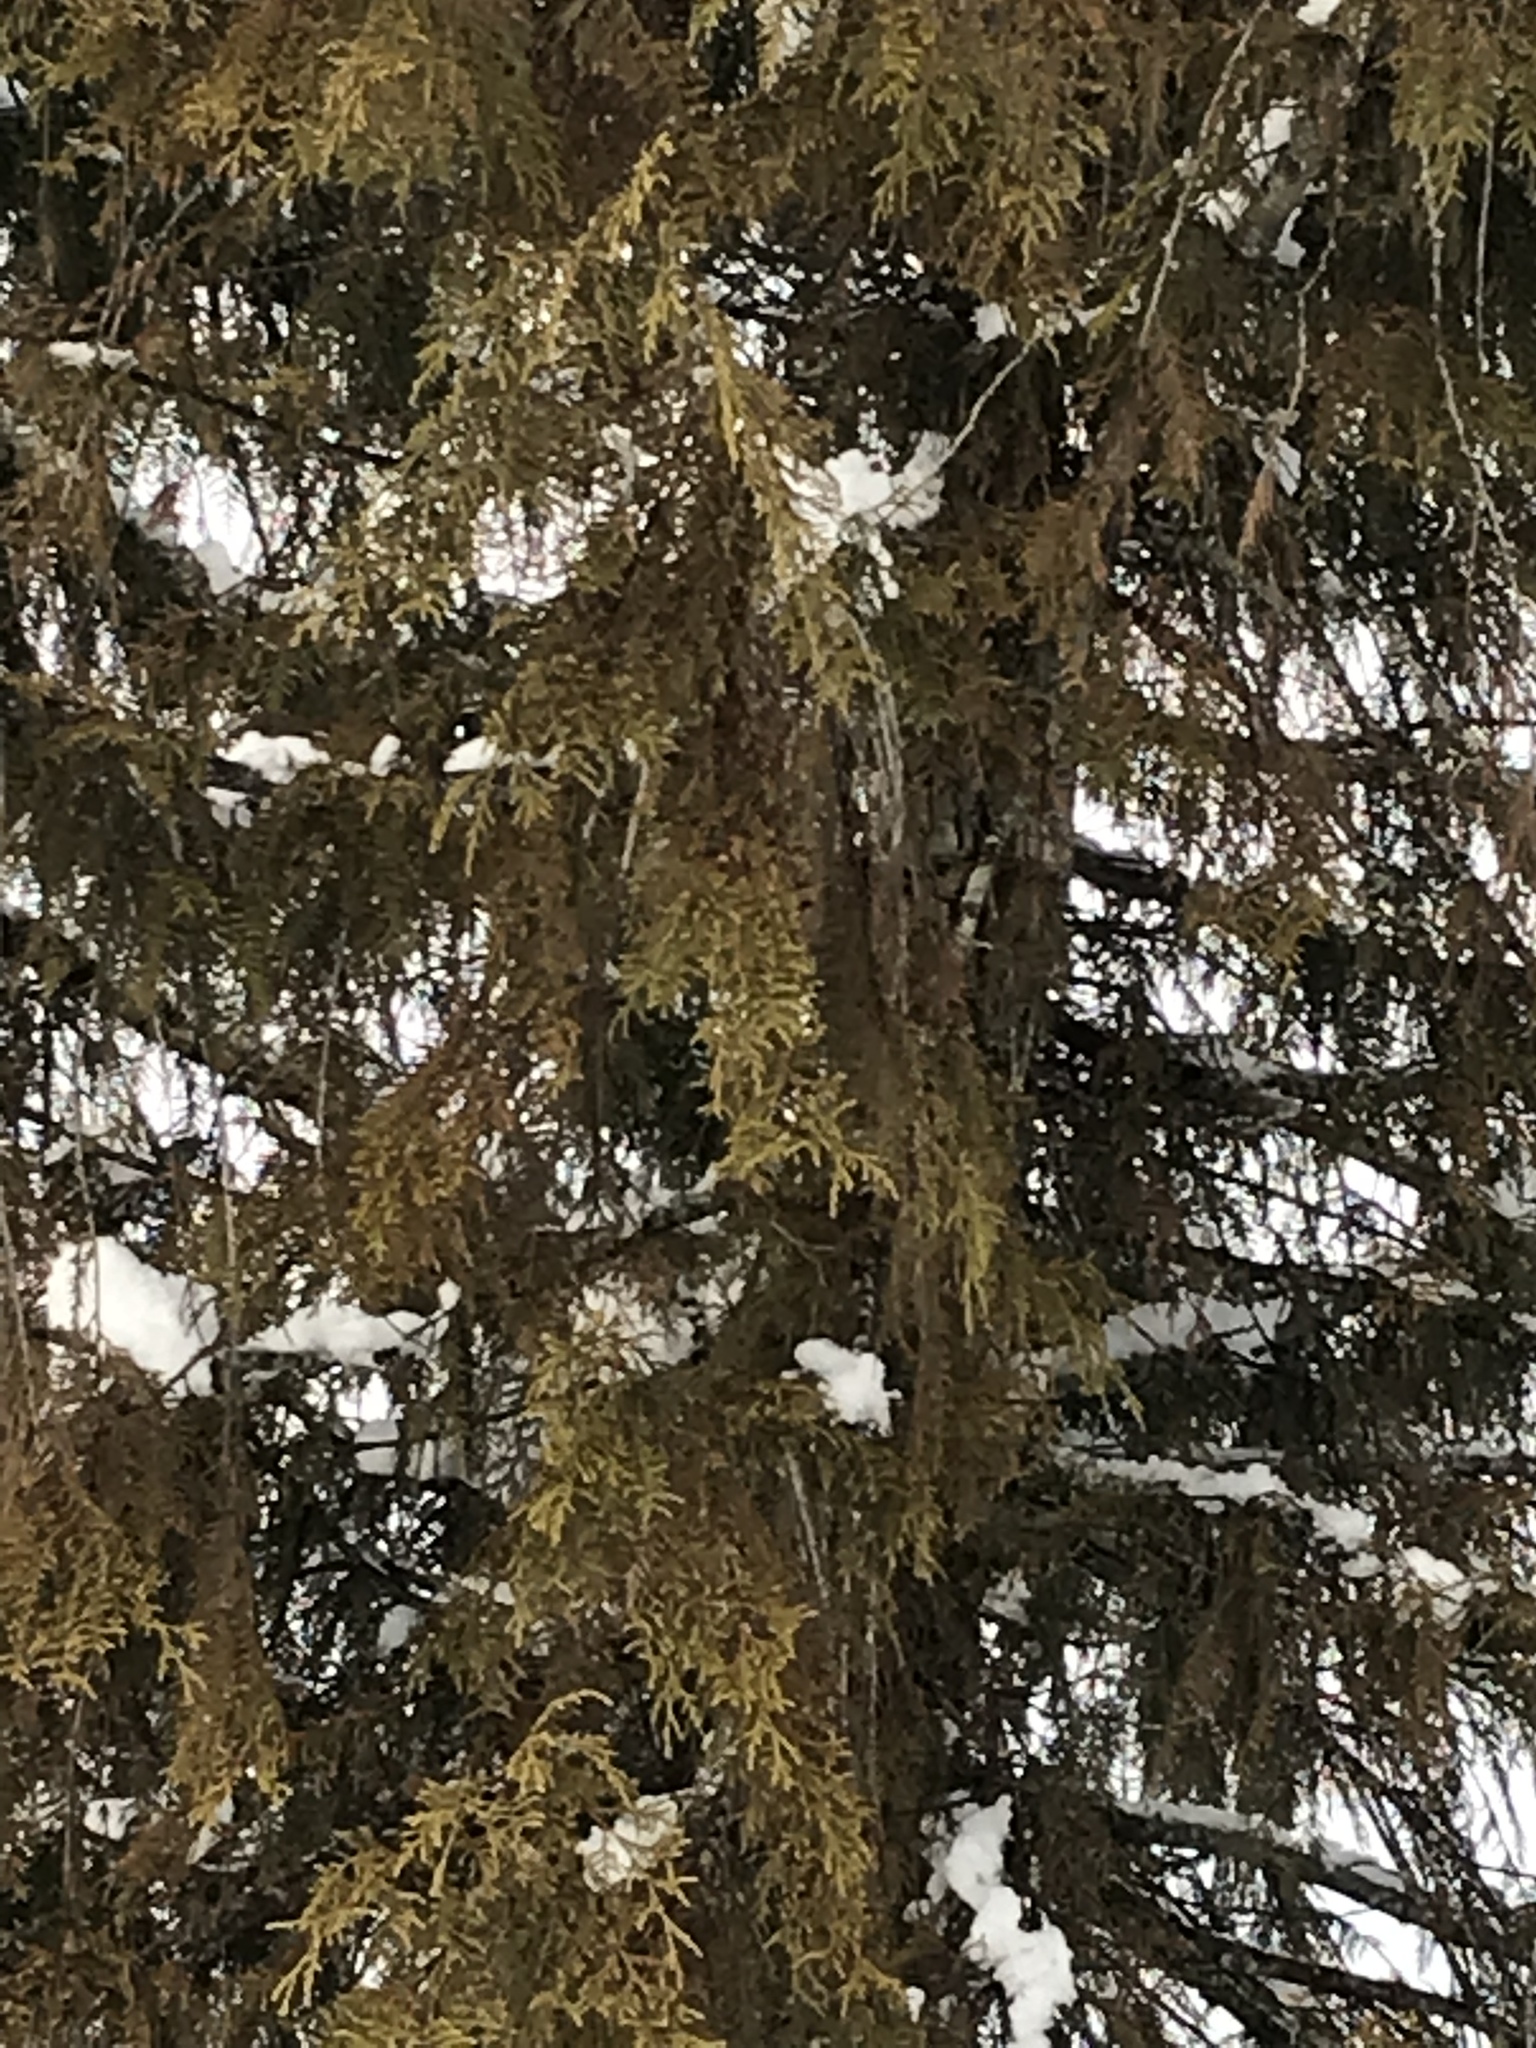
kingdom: Plantae
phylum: Tracheophyta
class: Pinopsida
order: Pinales
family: Cupressaceae
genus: Thuja
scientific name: Thuja plicata
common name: Western red-cedar
